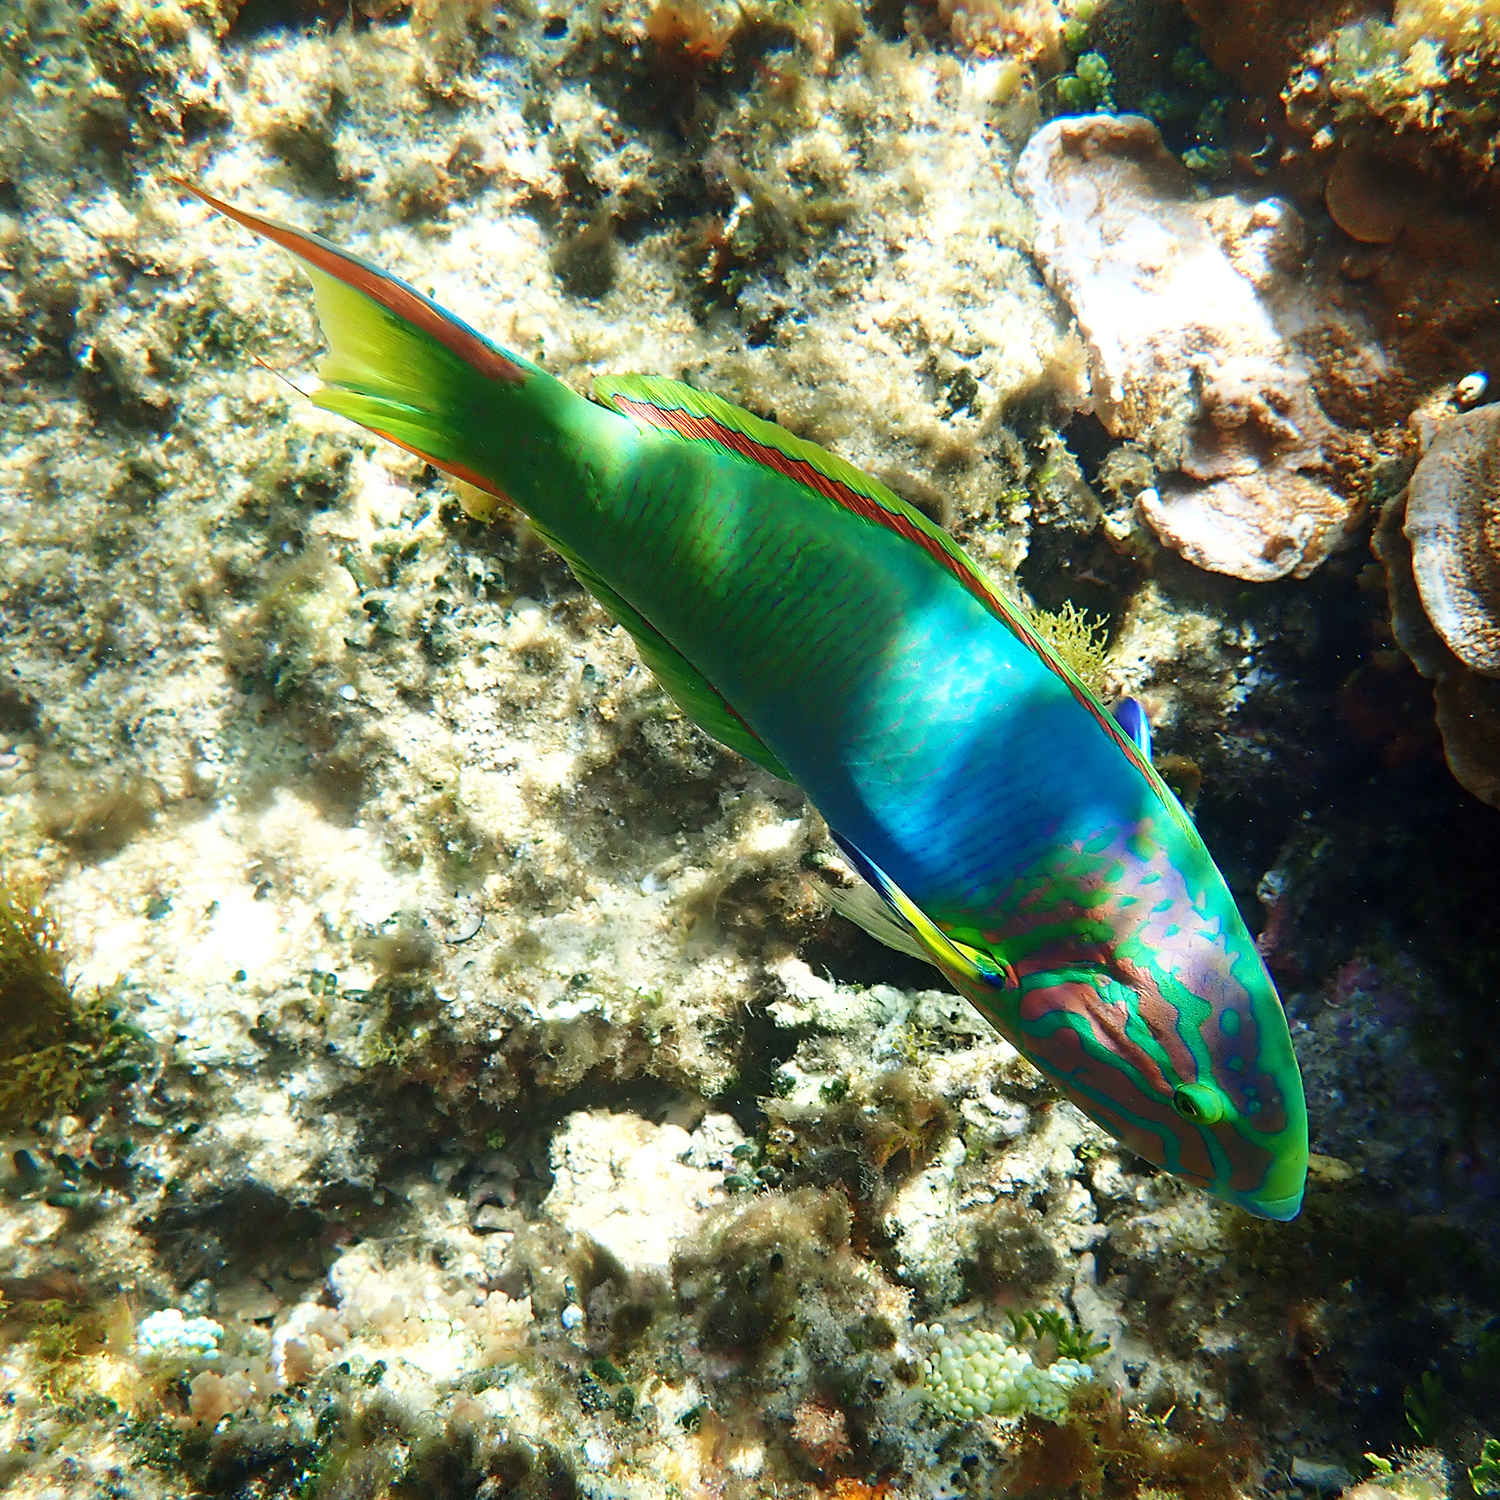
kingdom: Animalia
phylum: Chordata
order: Perciformes
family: Labridae
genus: Thalassoma
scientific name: Thalassoma lutescens
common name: Green moon wrasse
